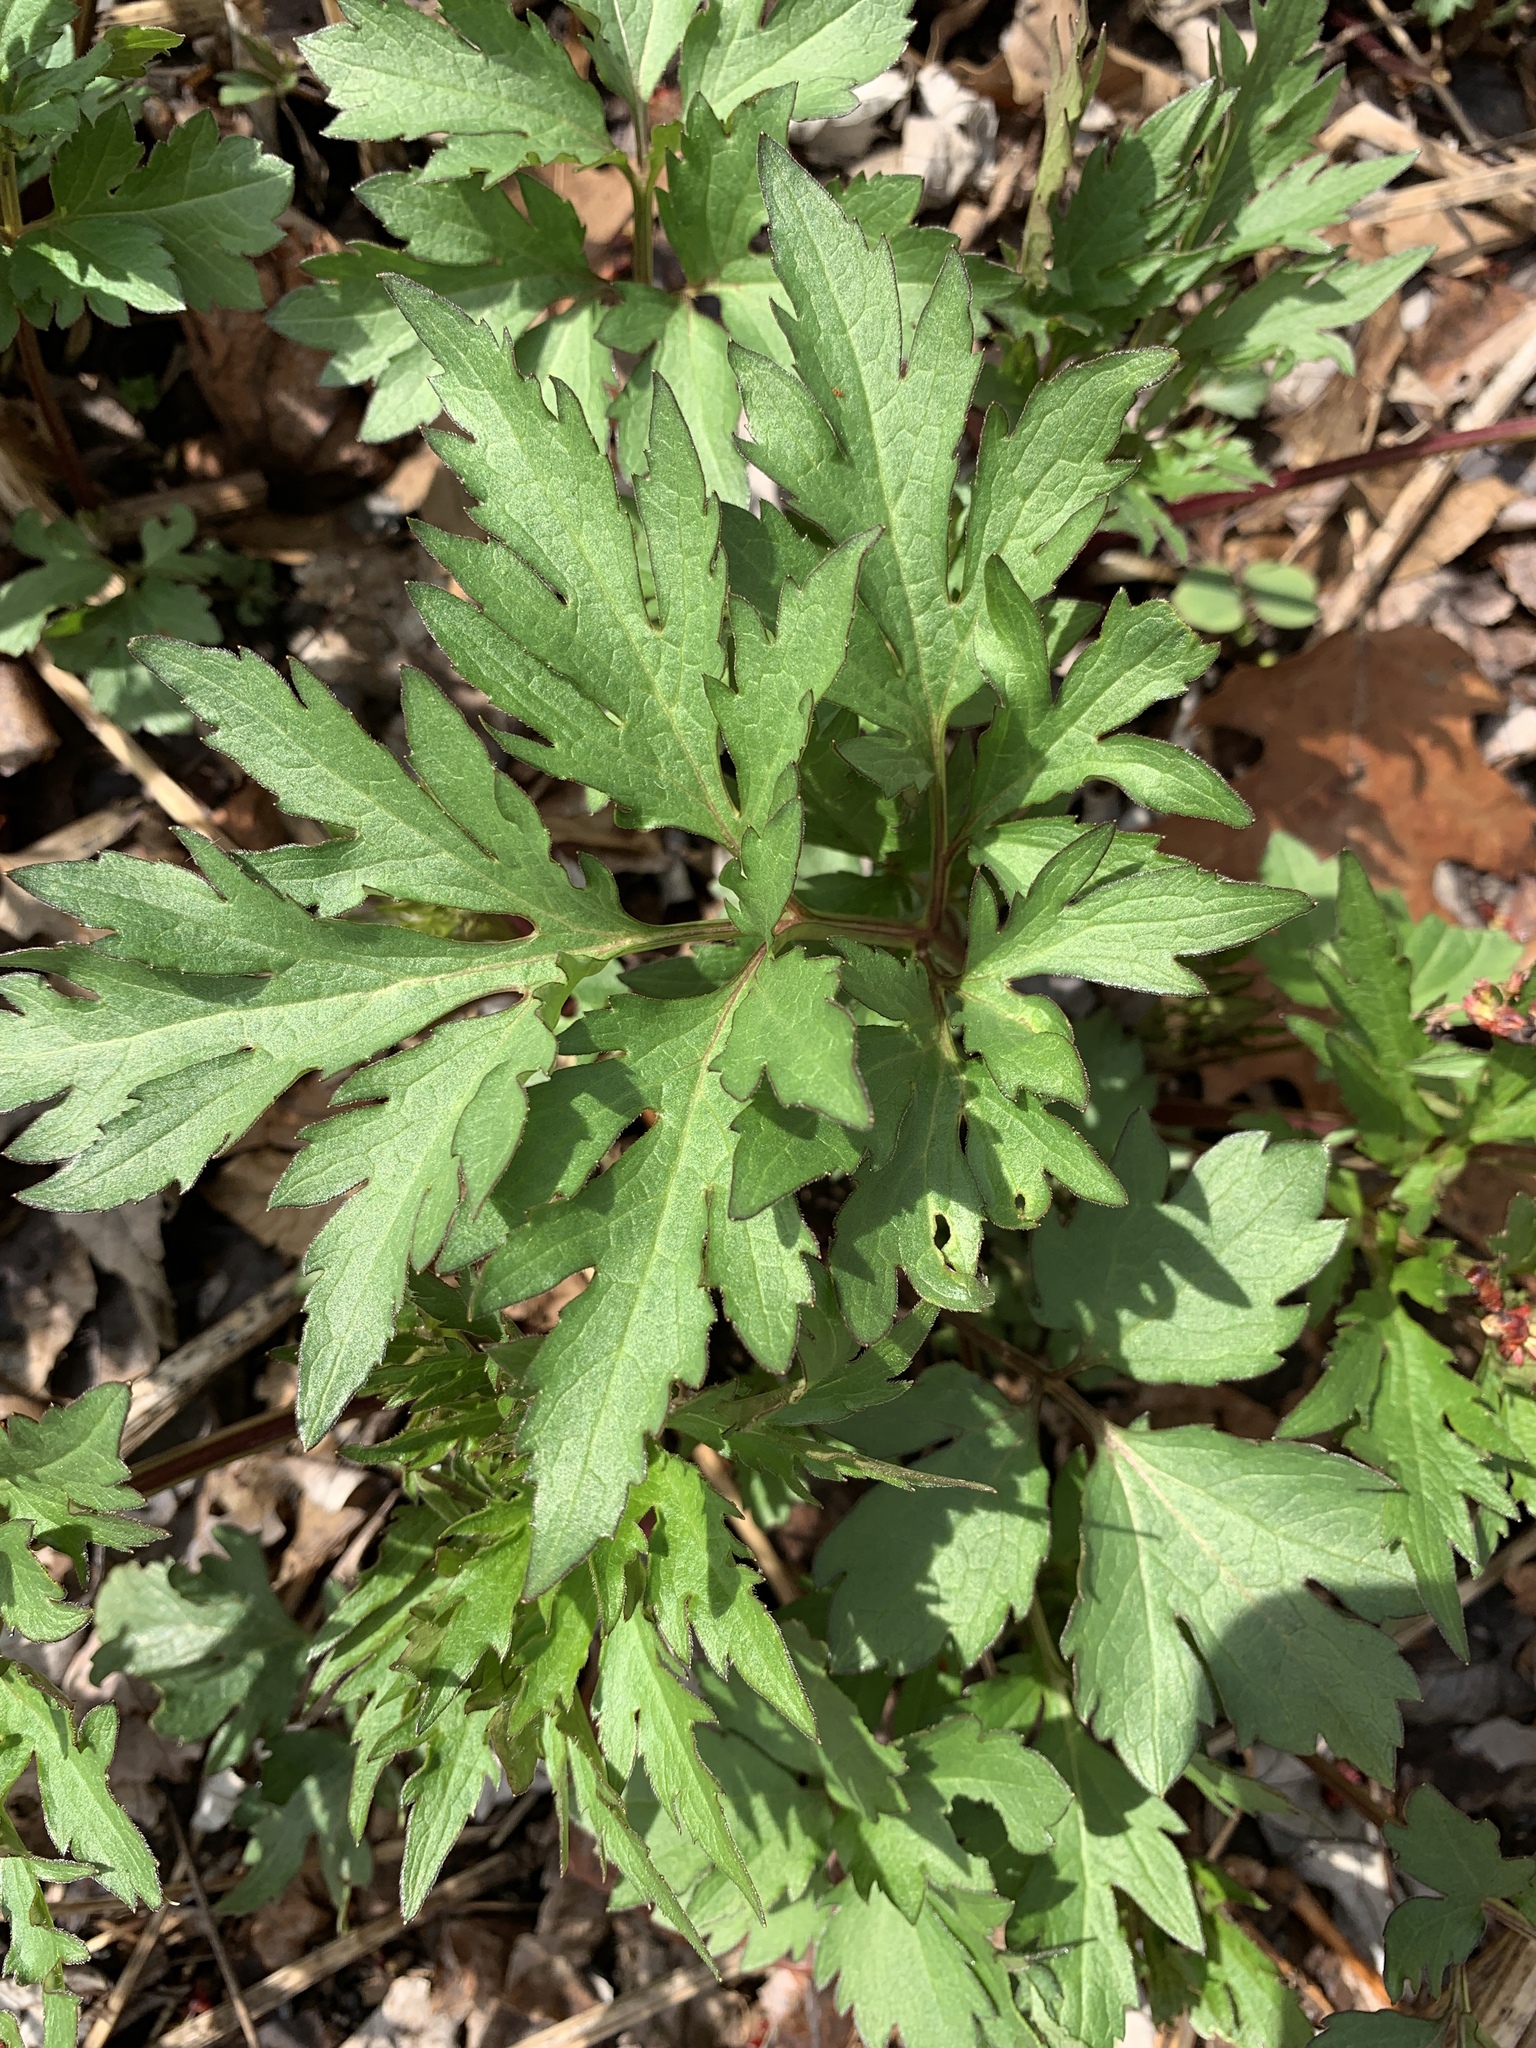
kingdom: Plantae
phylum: Tracheophyta
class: Magnoliopsida
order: Asterales
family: Asteraceae
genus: Rudbeckia
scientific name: Rudbeckia laciniata
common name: Coneflower
